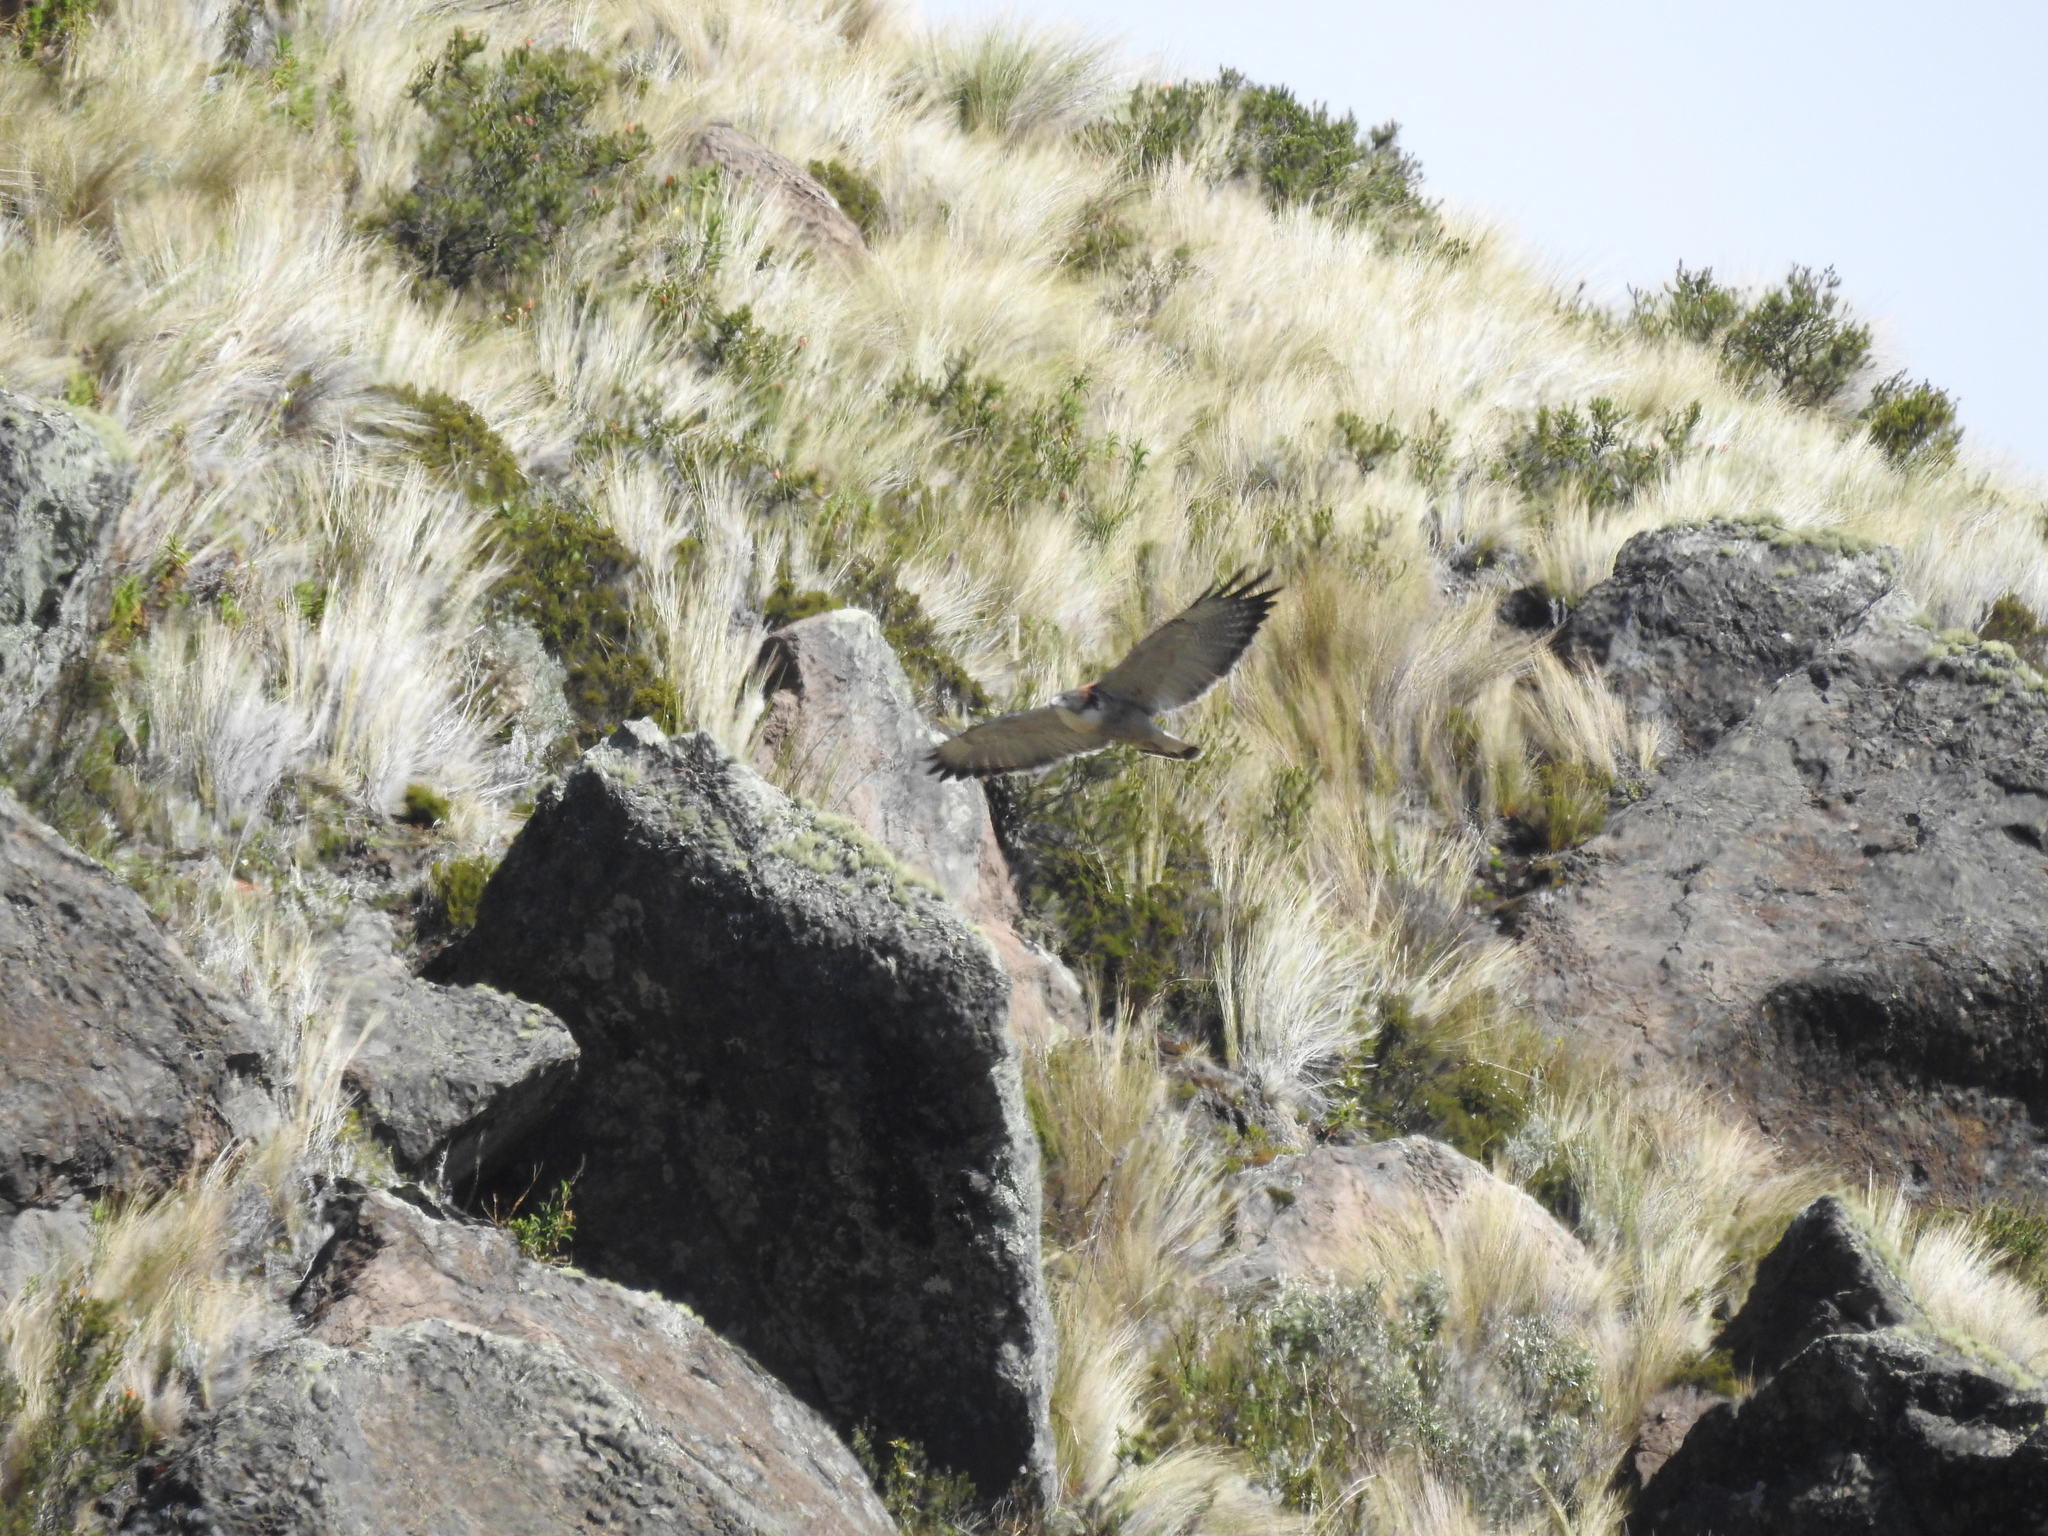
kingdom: Animalia
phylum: Chordata
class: Aves
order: Accipitriformes
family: Accipitridae
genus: Buteo
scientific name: Buteo polyosoma
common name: Variable hawk
